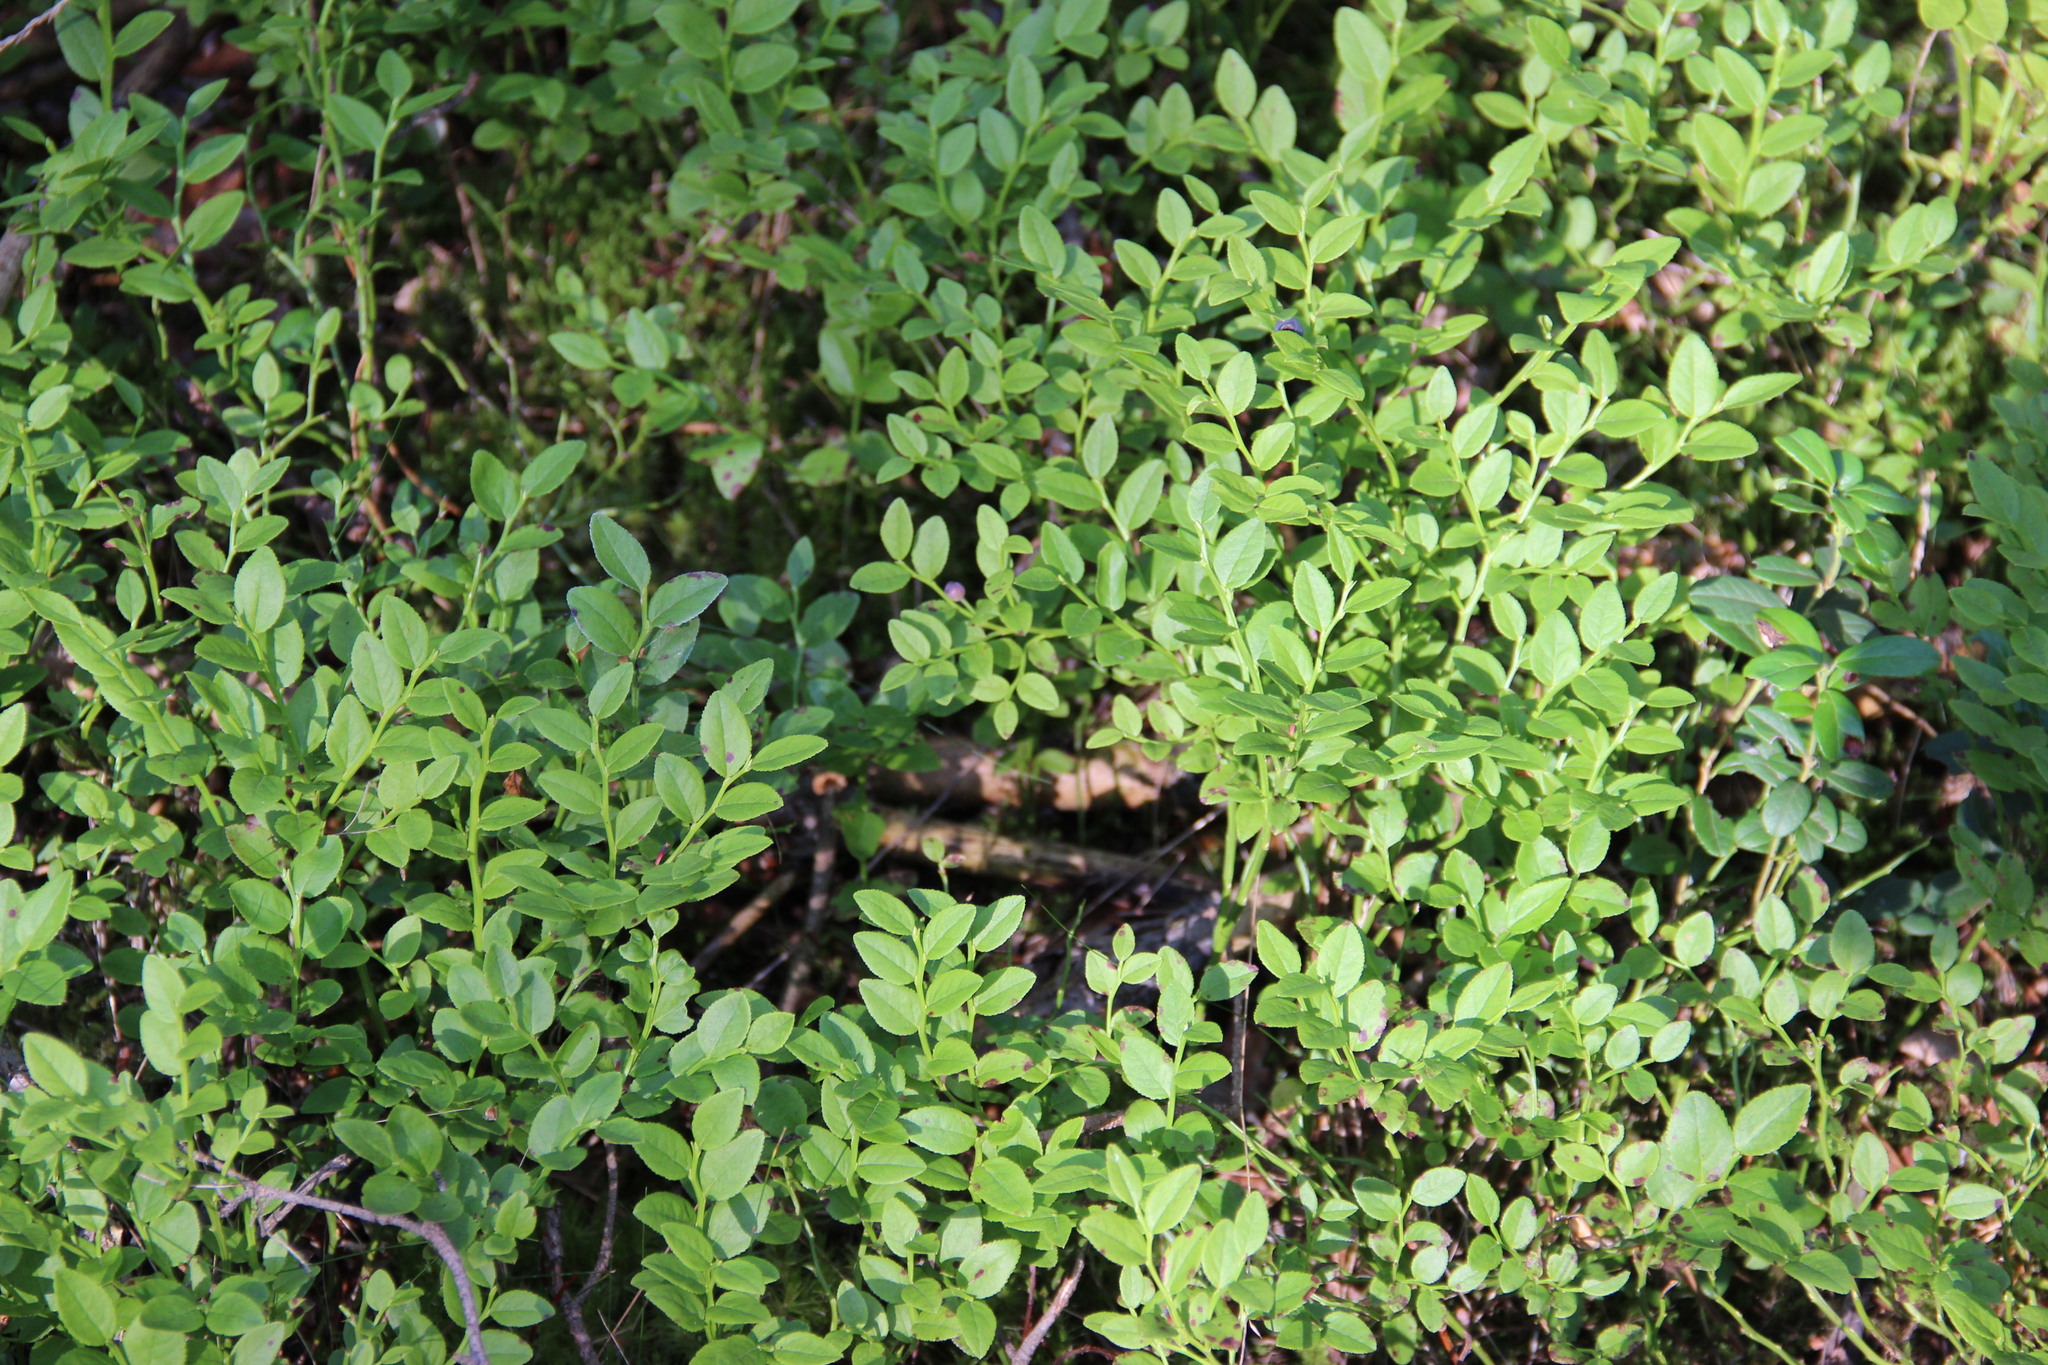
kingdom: Plantae
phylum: Tracheophyta
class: Magnoliopsida
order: Ericales
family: Ericaceae
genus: Vaccinium
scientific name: Vaccinium myrtillus
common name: Bilberry
